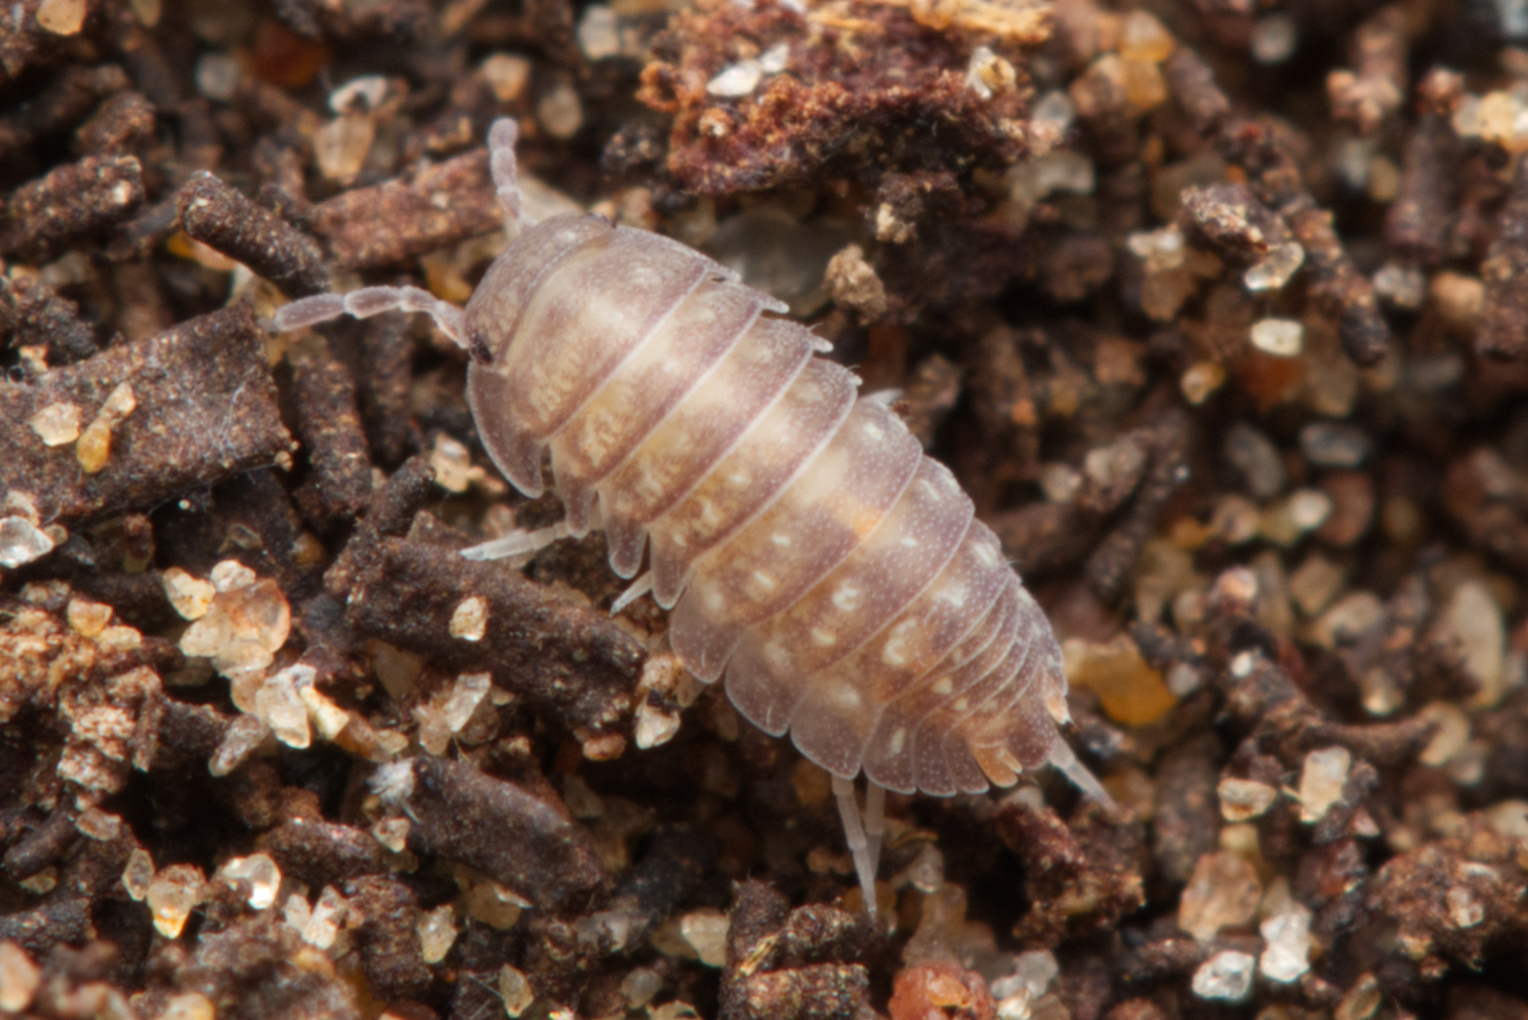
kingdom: Animalia
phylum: Arthropoda
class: Malacostraca
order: Isopoda
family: Armadillidae
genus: Cubaris
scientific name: Cubaris marmorata
